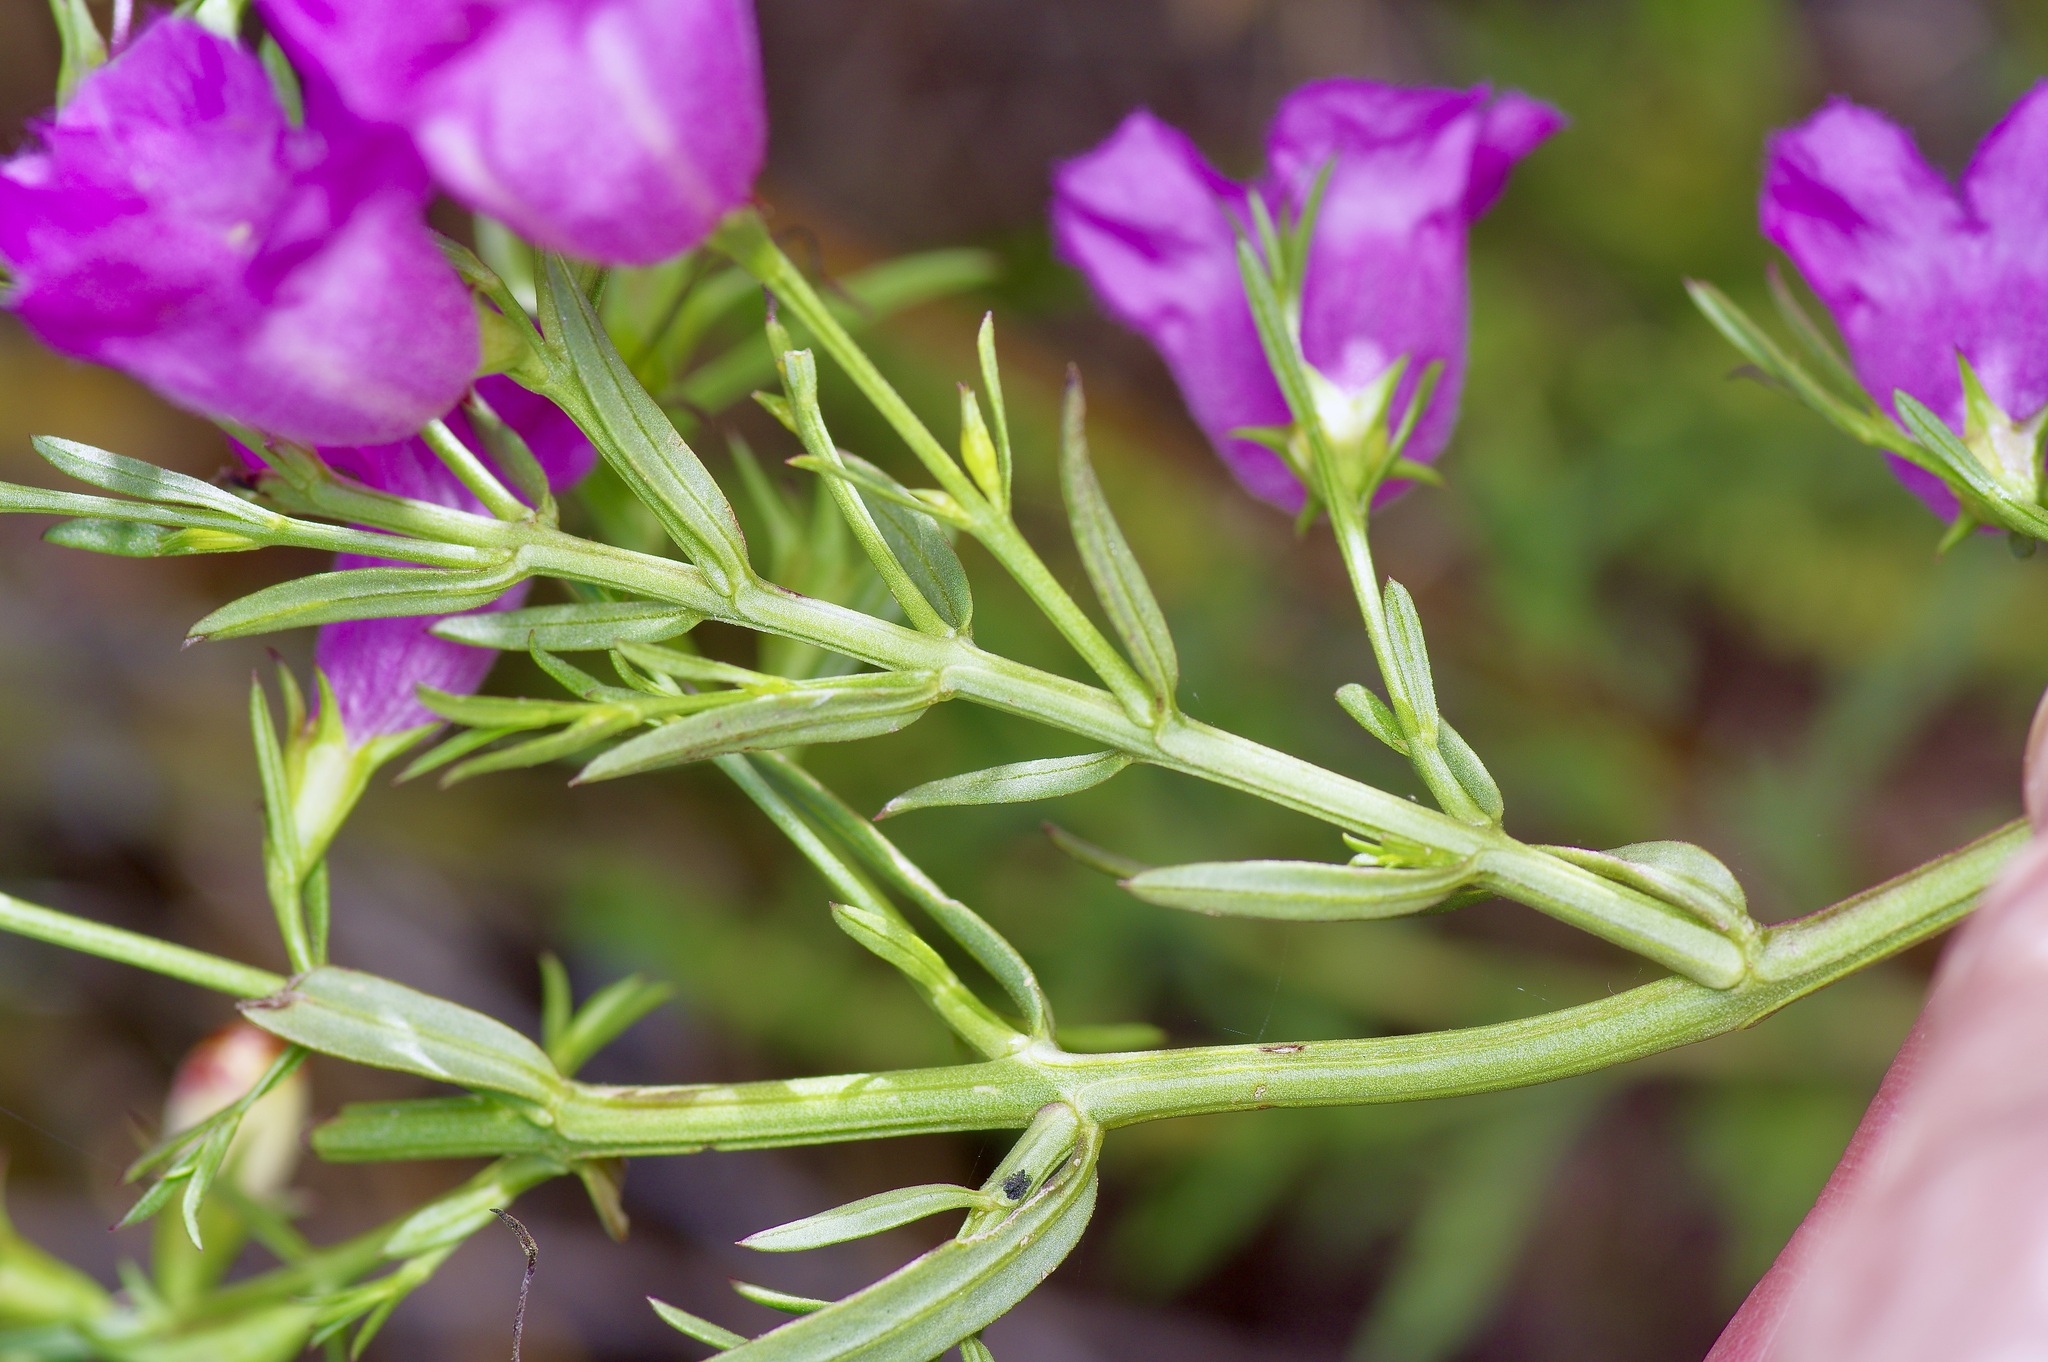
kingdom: Plantae
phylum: Tracheophyta
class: Magnoliopsida
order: Lamiales
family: Orobanchaceae
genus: Agalinis
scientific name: Agalinis heterophylla
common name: Prairie agalinis
